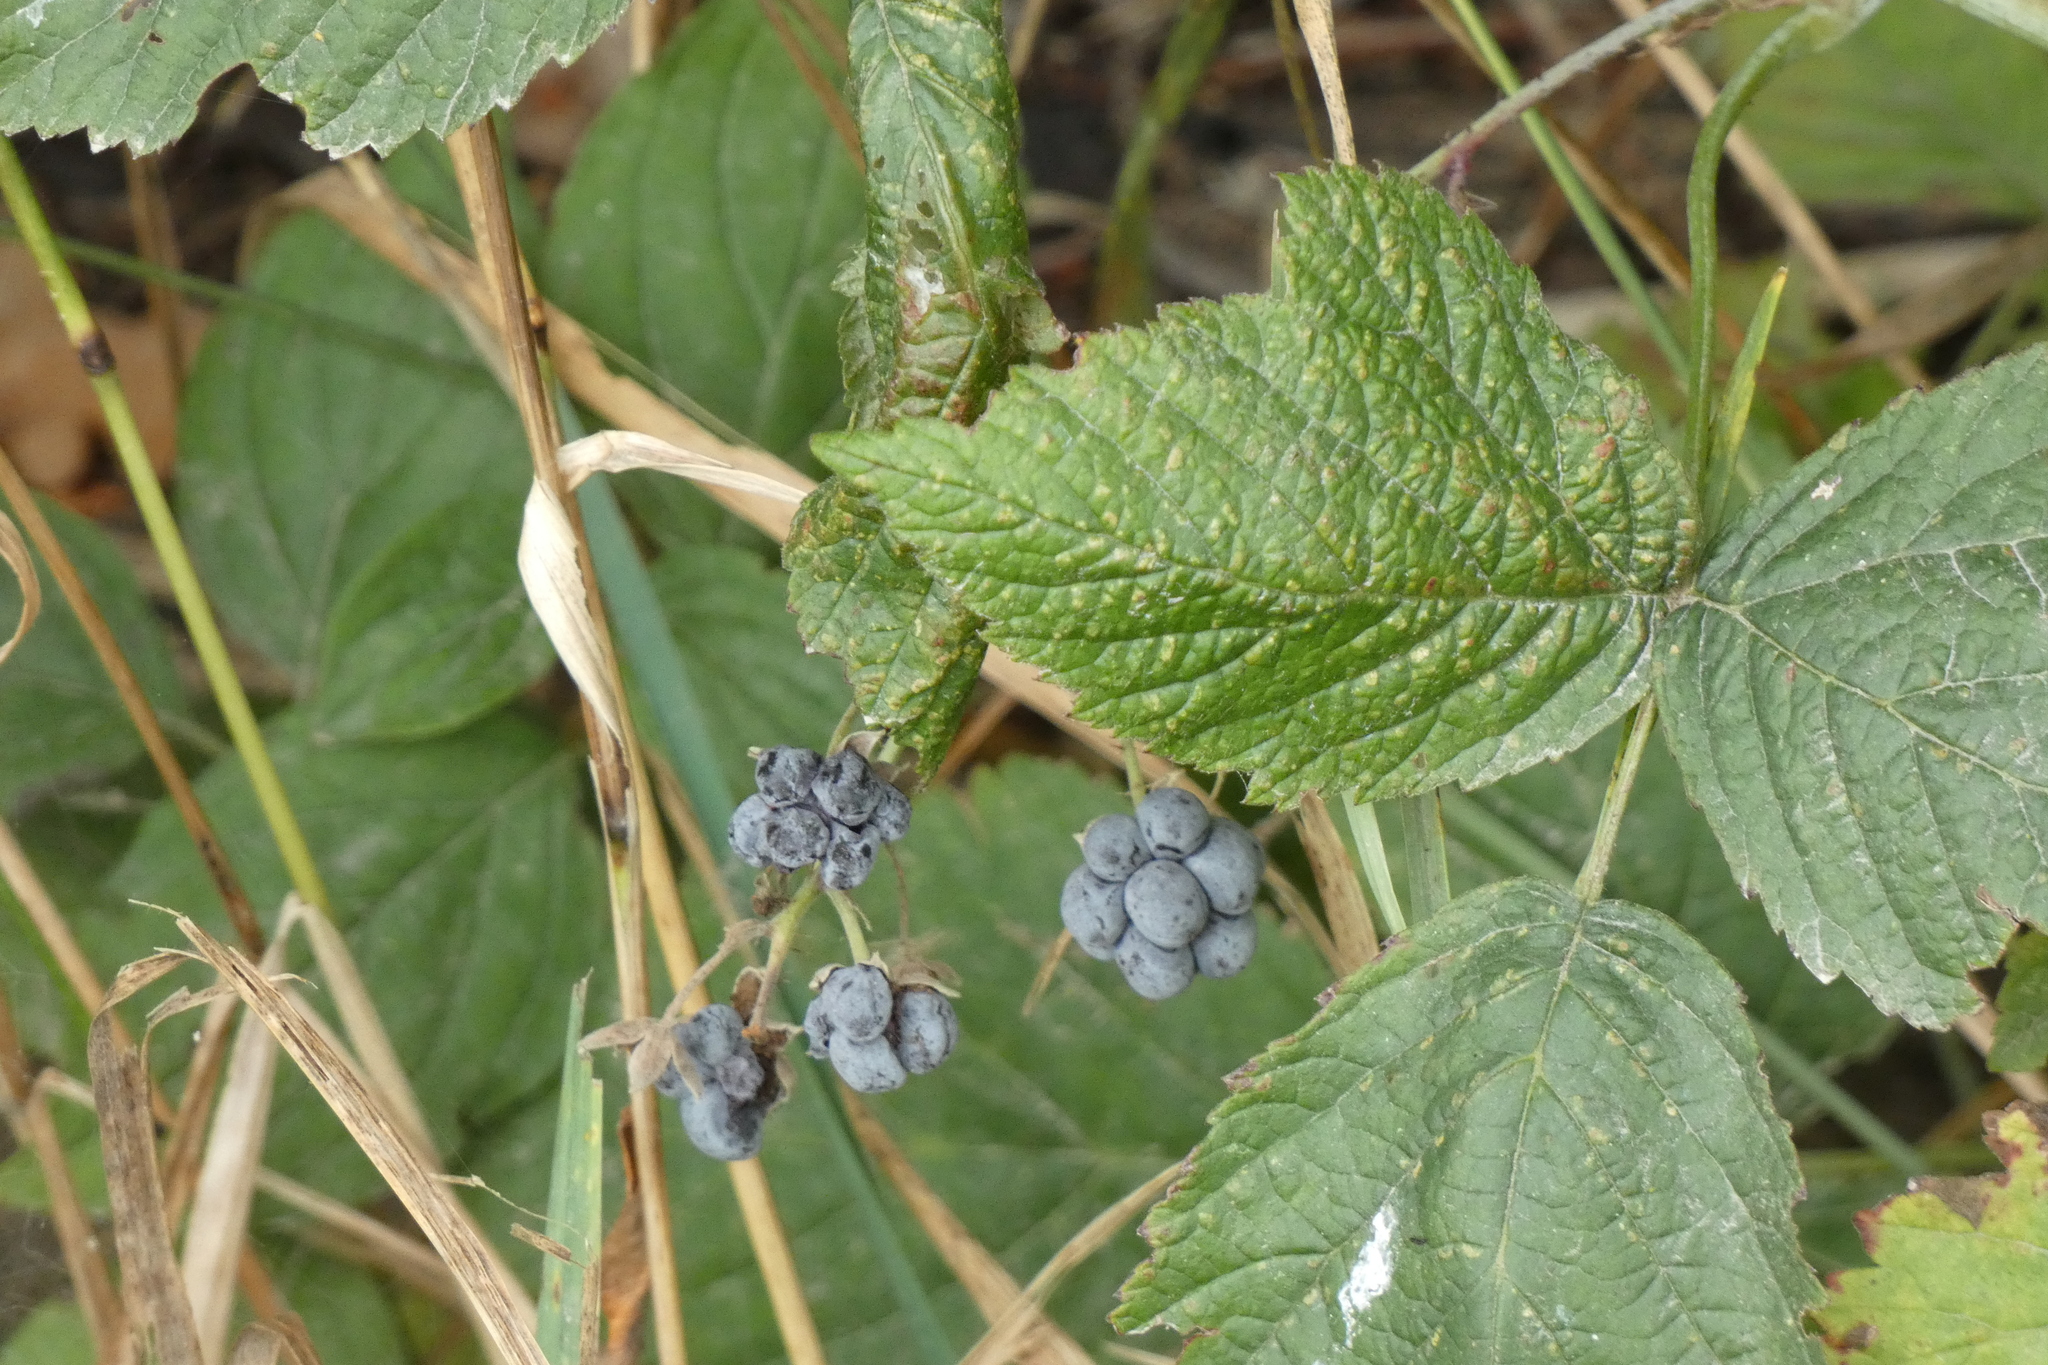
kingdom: Plantae
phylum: Tracheophyta
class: Magnoliopsida
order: Rosales
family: Rosaceae
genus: Rubus
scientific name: Rubus caesius
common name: Dewberry
